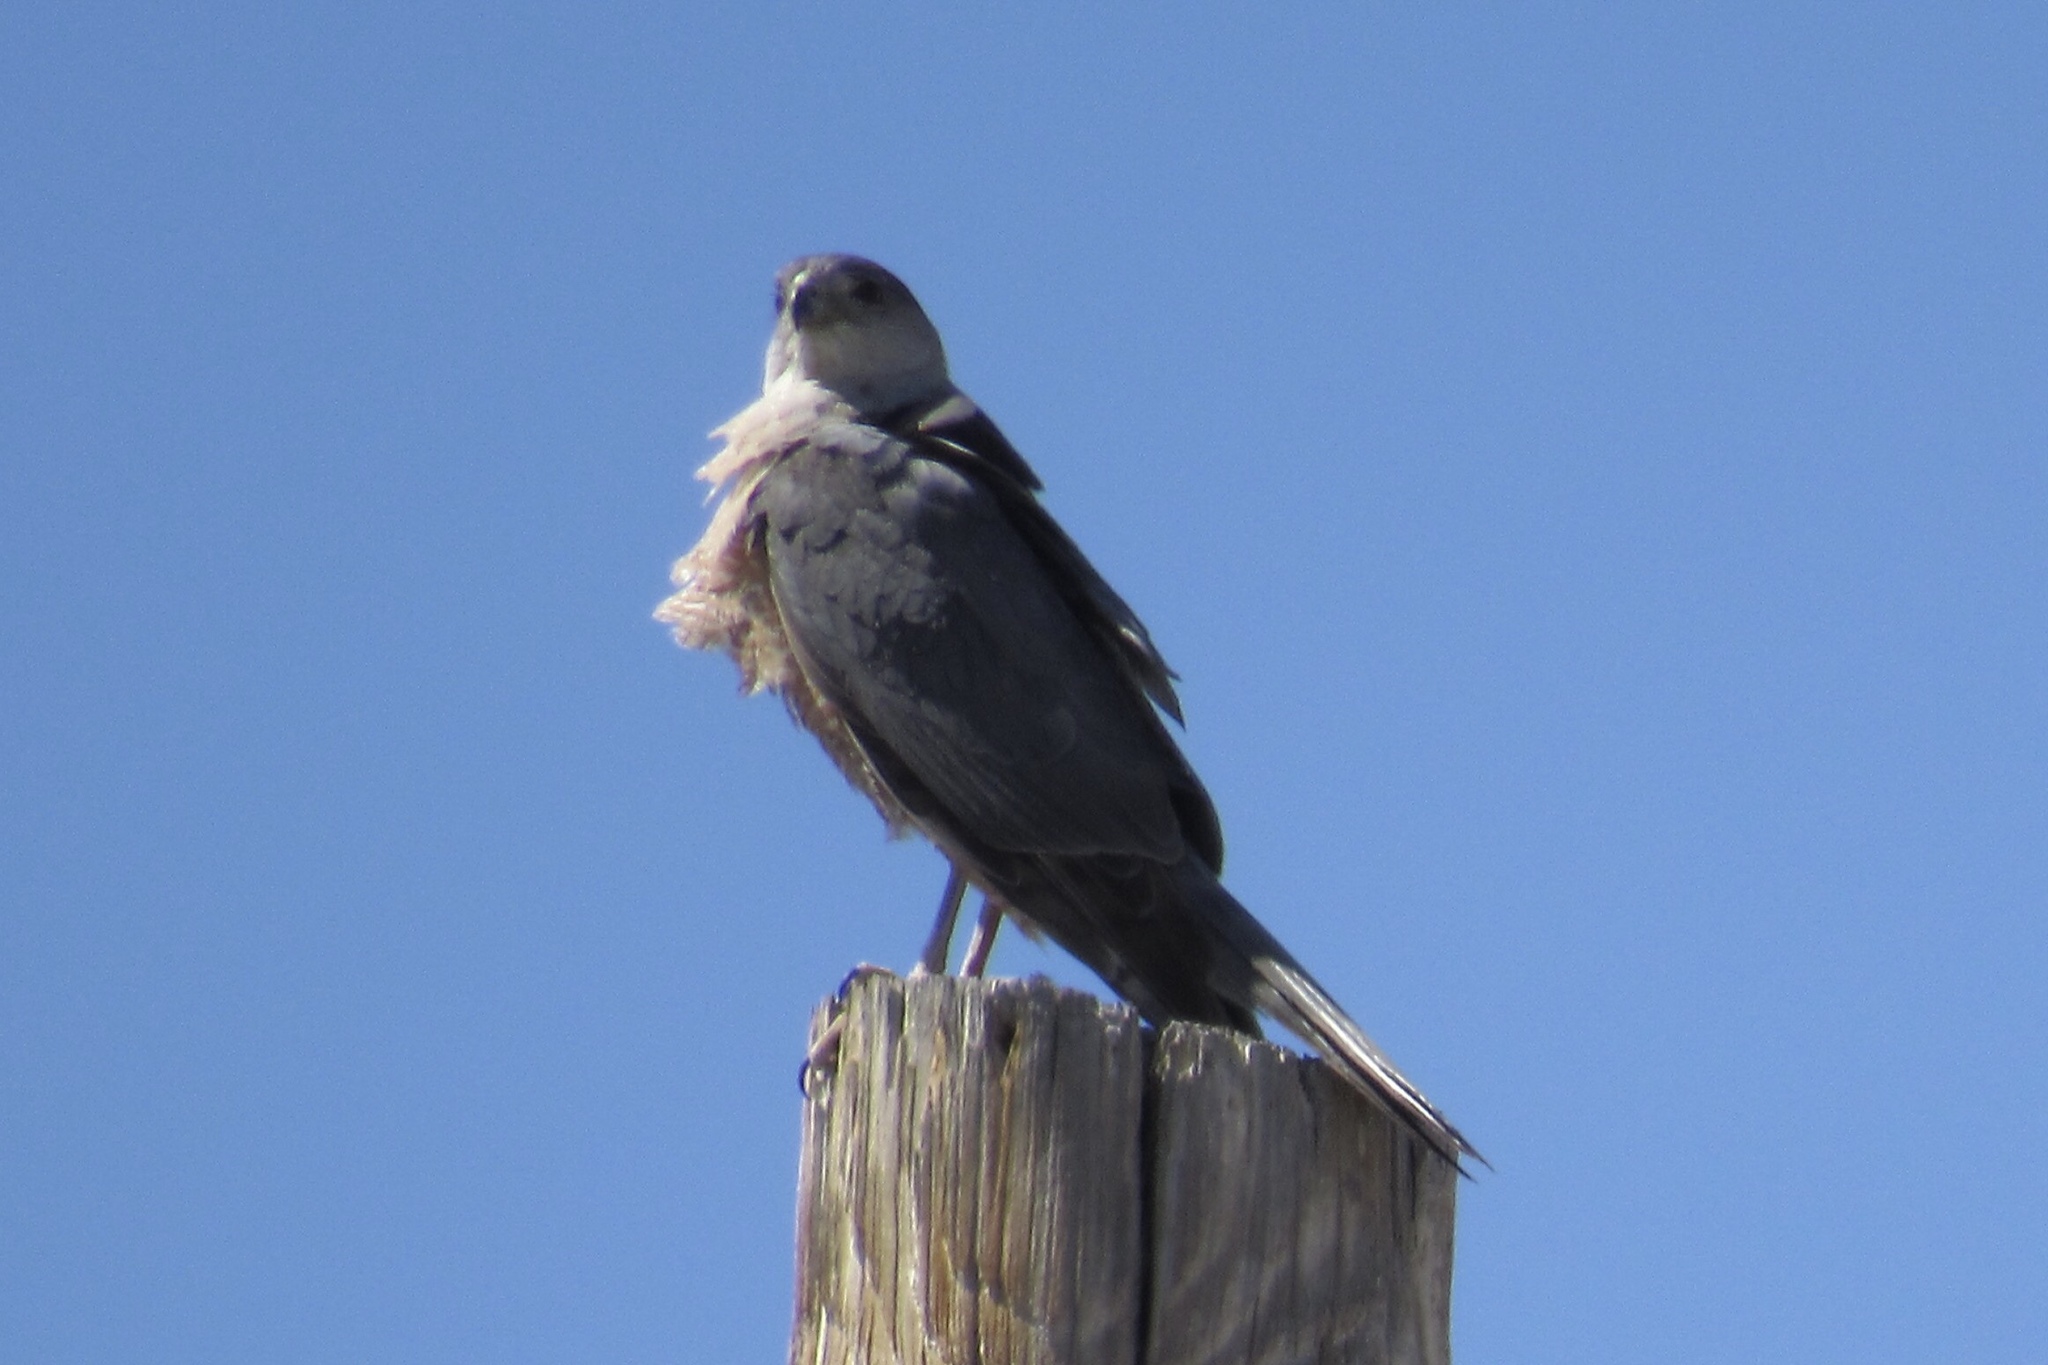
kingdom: Animalia
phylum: Chordata
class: Aves
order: Accipitriformes
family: Accipitridae
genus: Accipiter
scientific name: Accipiter cooperii
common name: Cooper's hawk
